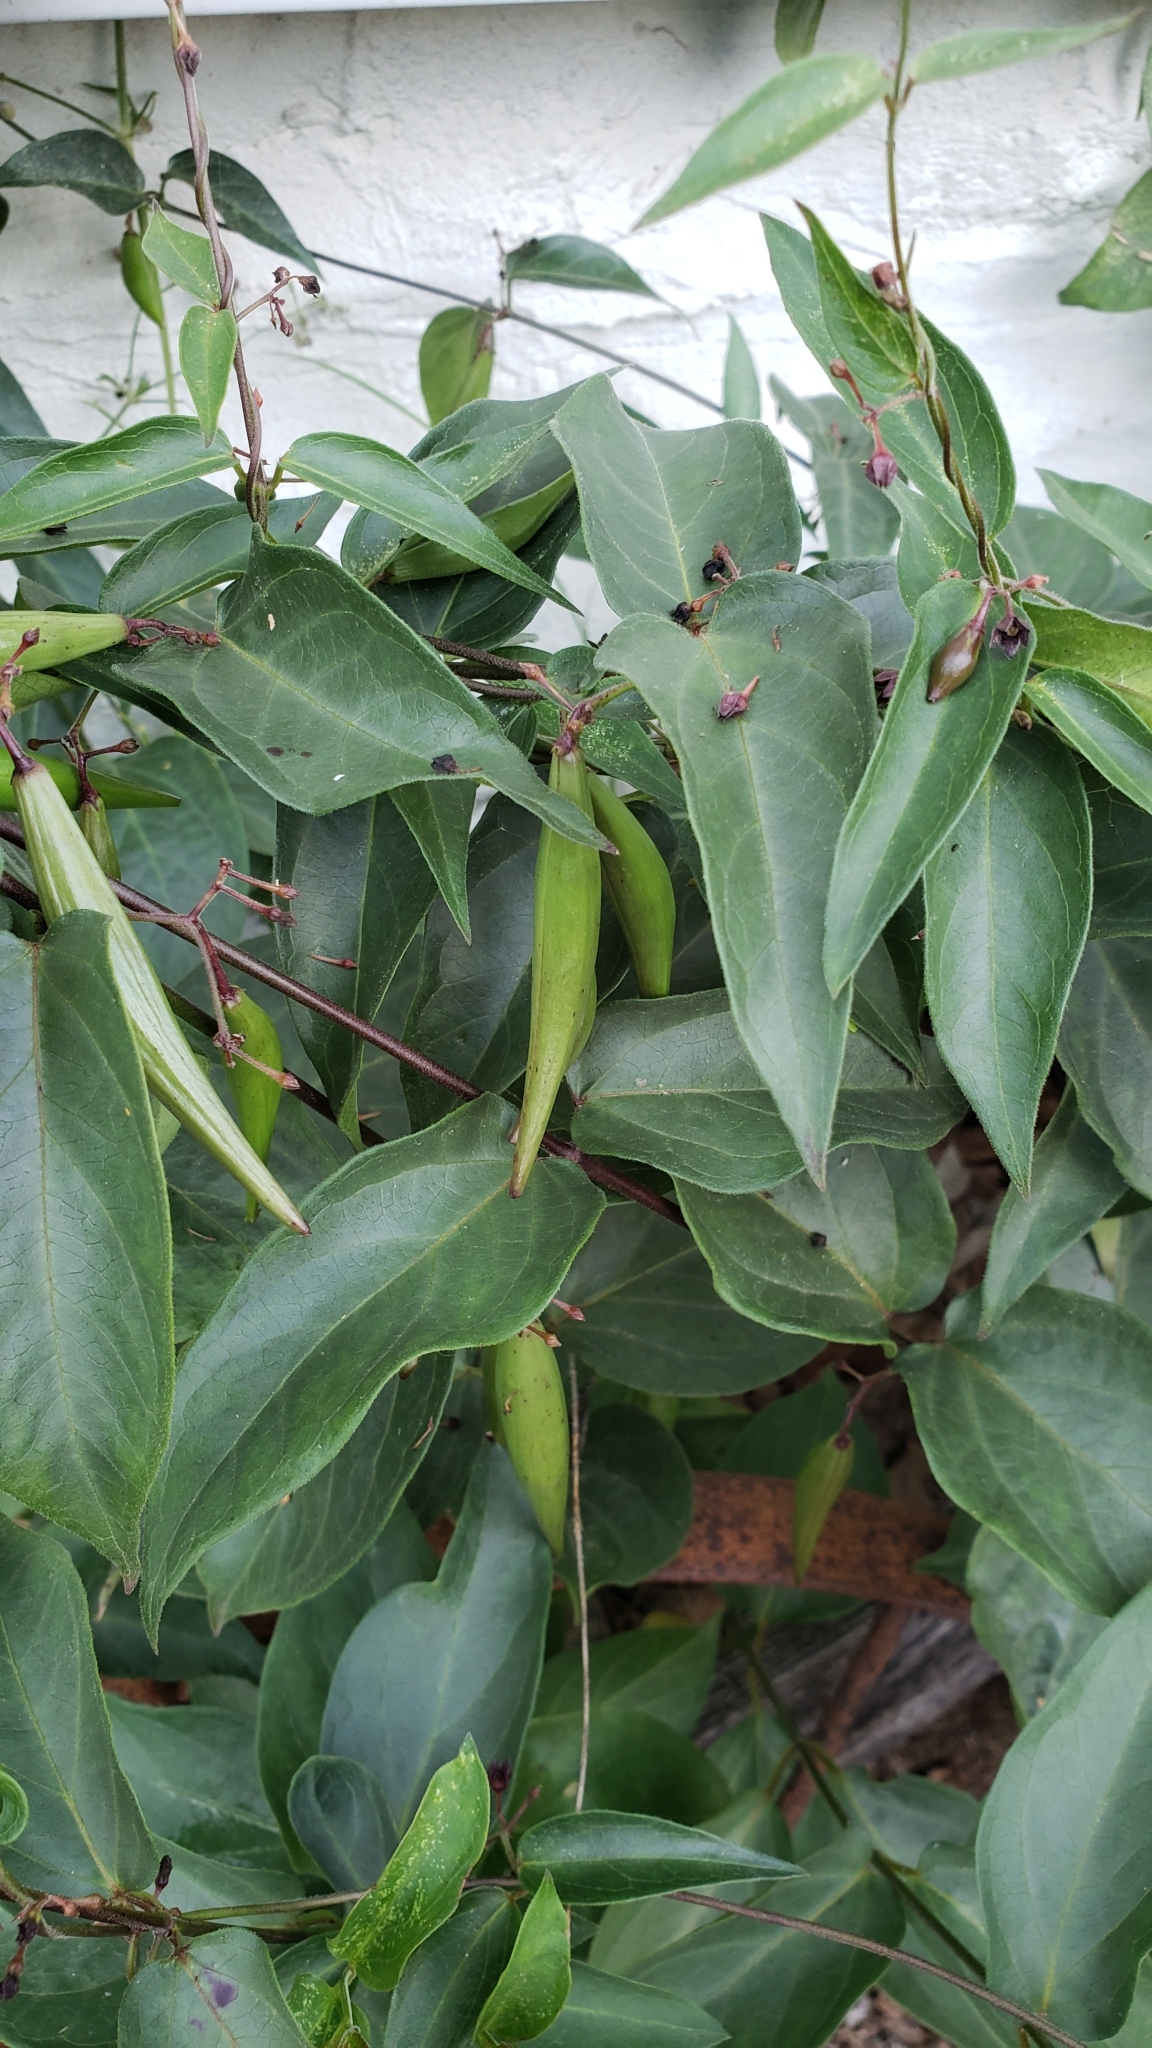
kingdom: Plantae
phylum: Tracheophyta
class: Magnoliopsida
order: Gentianales
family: Apocynaceae
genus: Vincetoxicum
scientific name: Vincetoxicum nigrum
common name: Black swallow-wort
